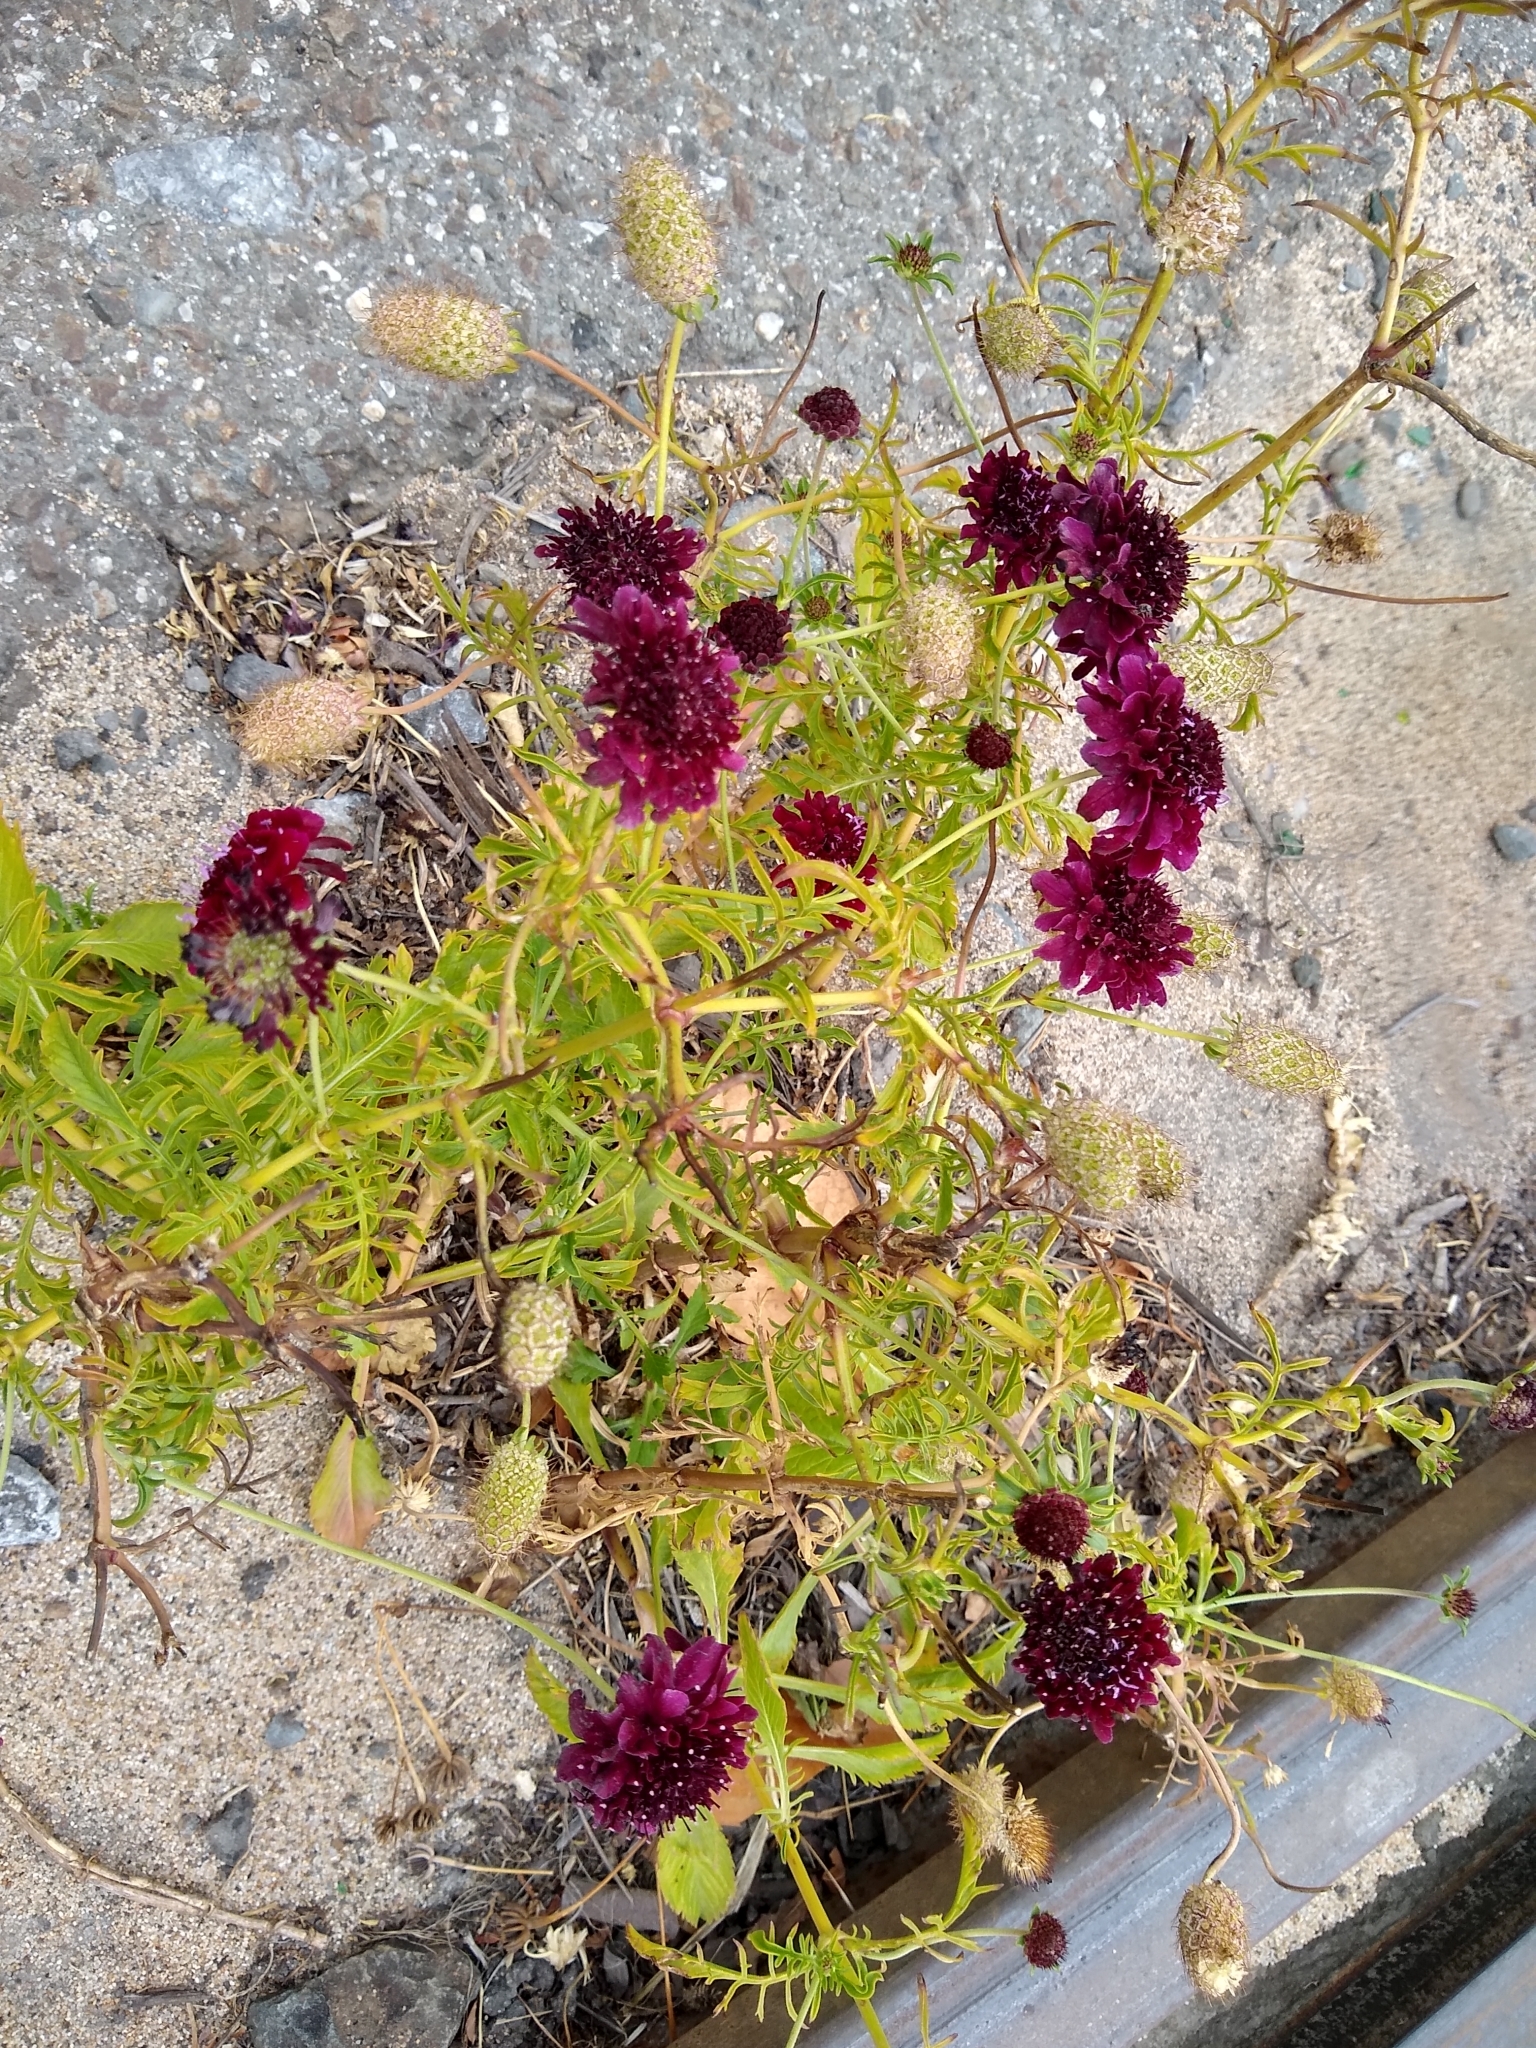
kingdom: Plantae
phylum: Tracheophyta
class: Magnoliopsida
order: Dipsacales
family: Caprifoliaceae
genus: Sixalix
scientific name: Sixalix atropurpurea
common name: Sweet scabious
